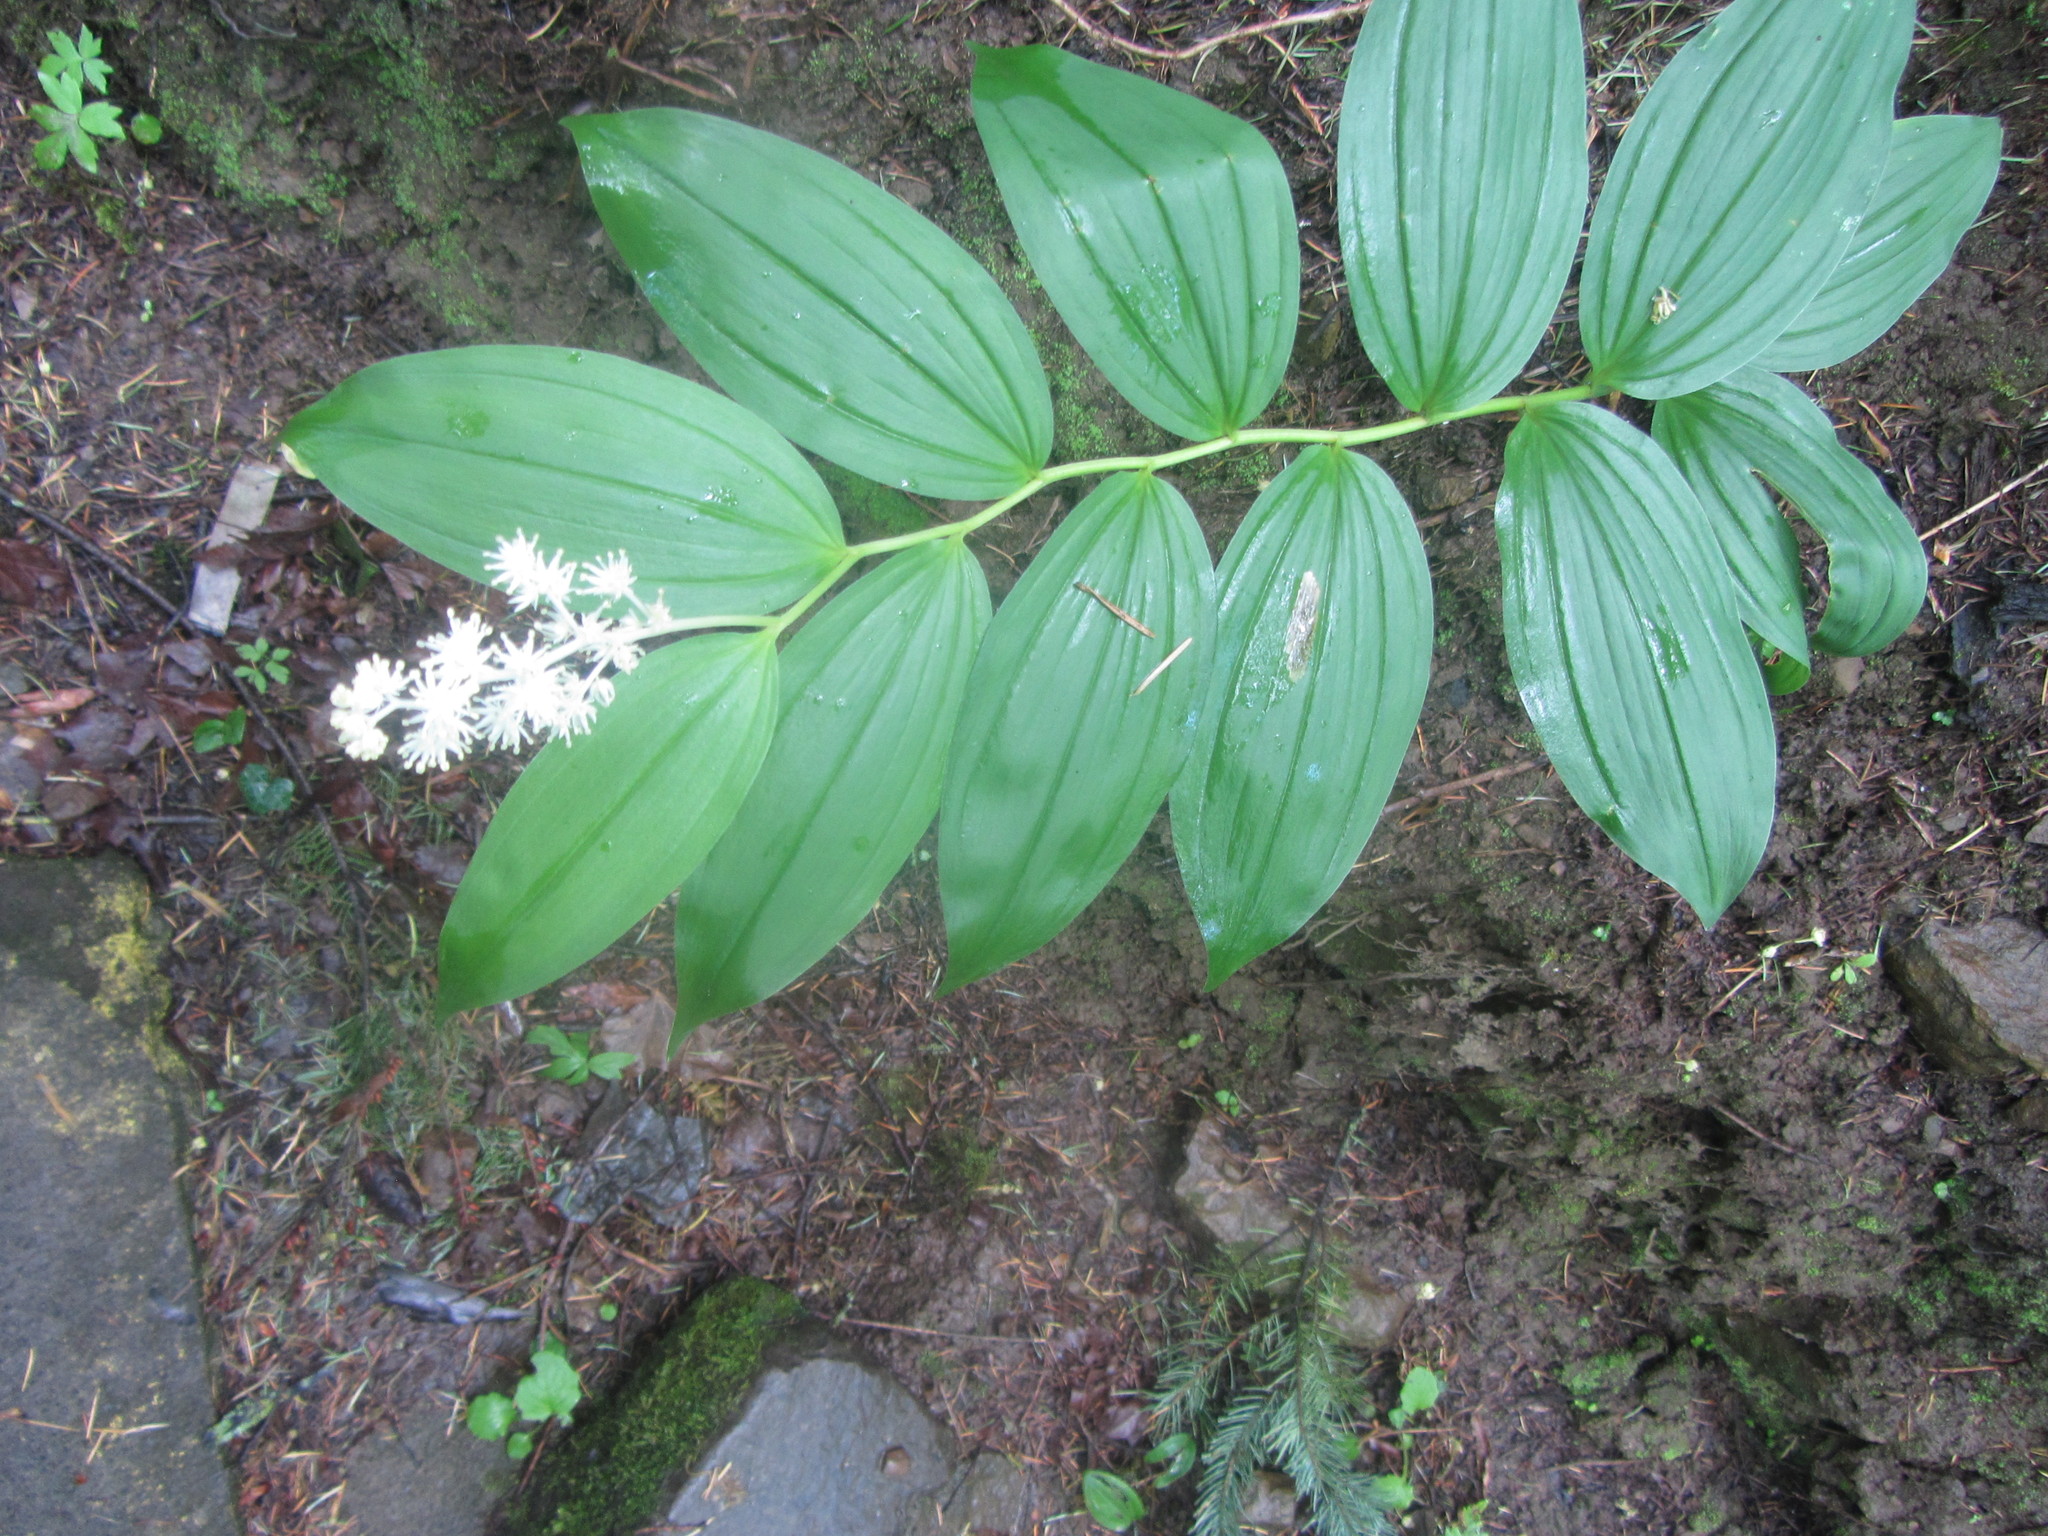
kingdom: Plantae
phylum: Tracheophyta
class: Liliopsida
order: Asparagales
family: Asparagaceae
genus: Maianthemum
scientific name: Maianthemum racemosum
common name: False spikenard
